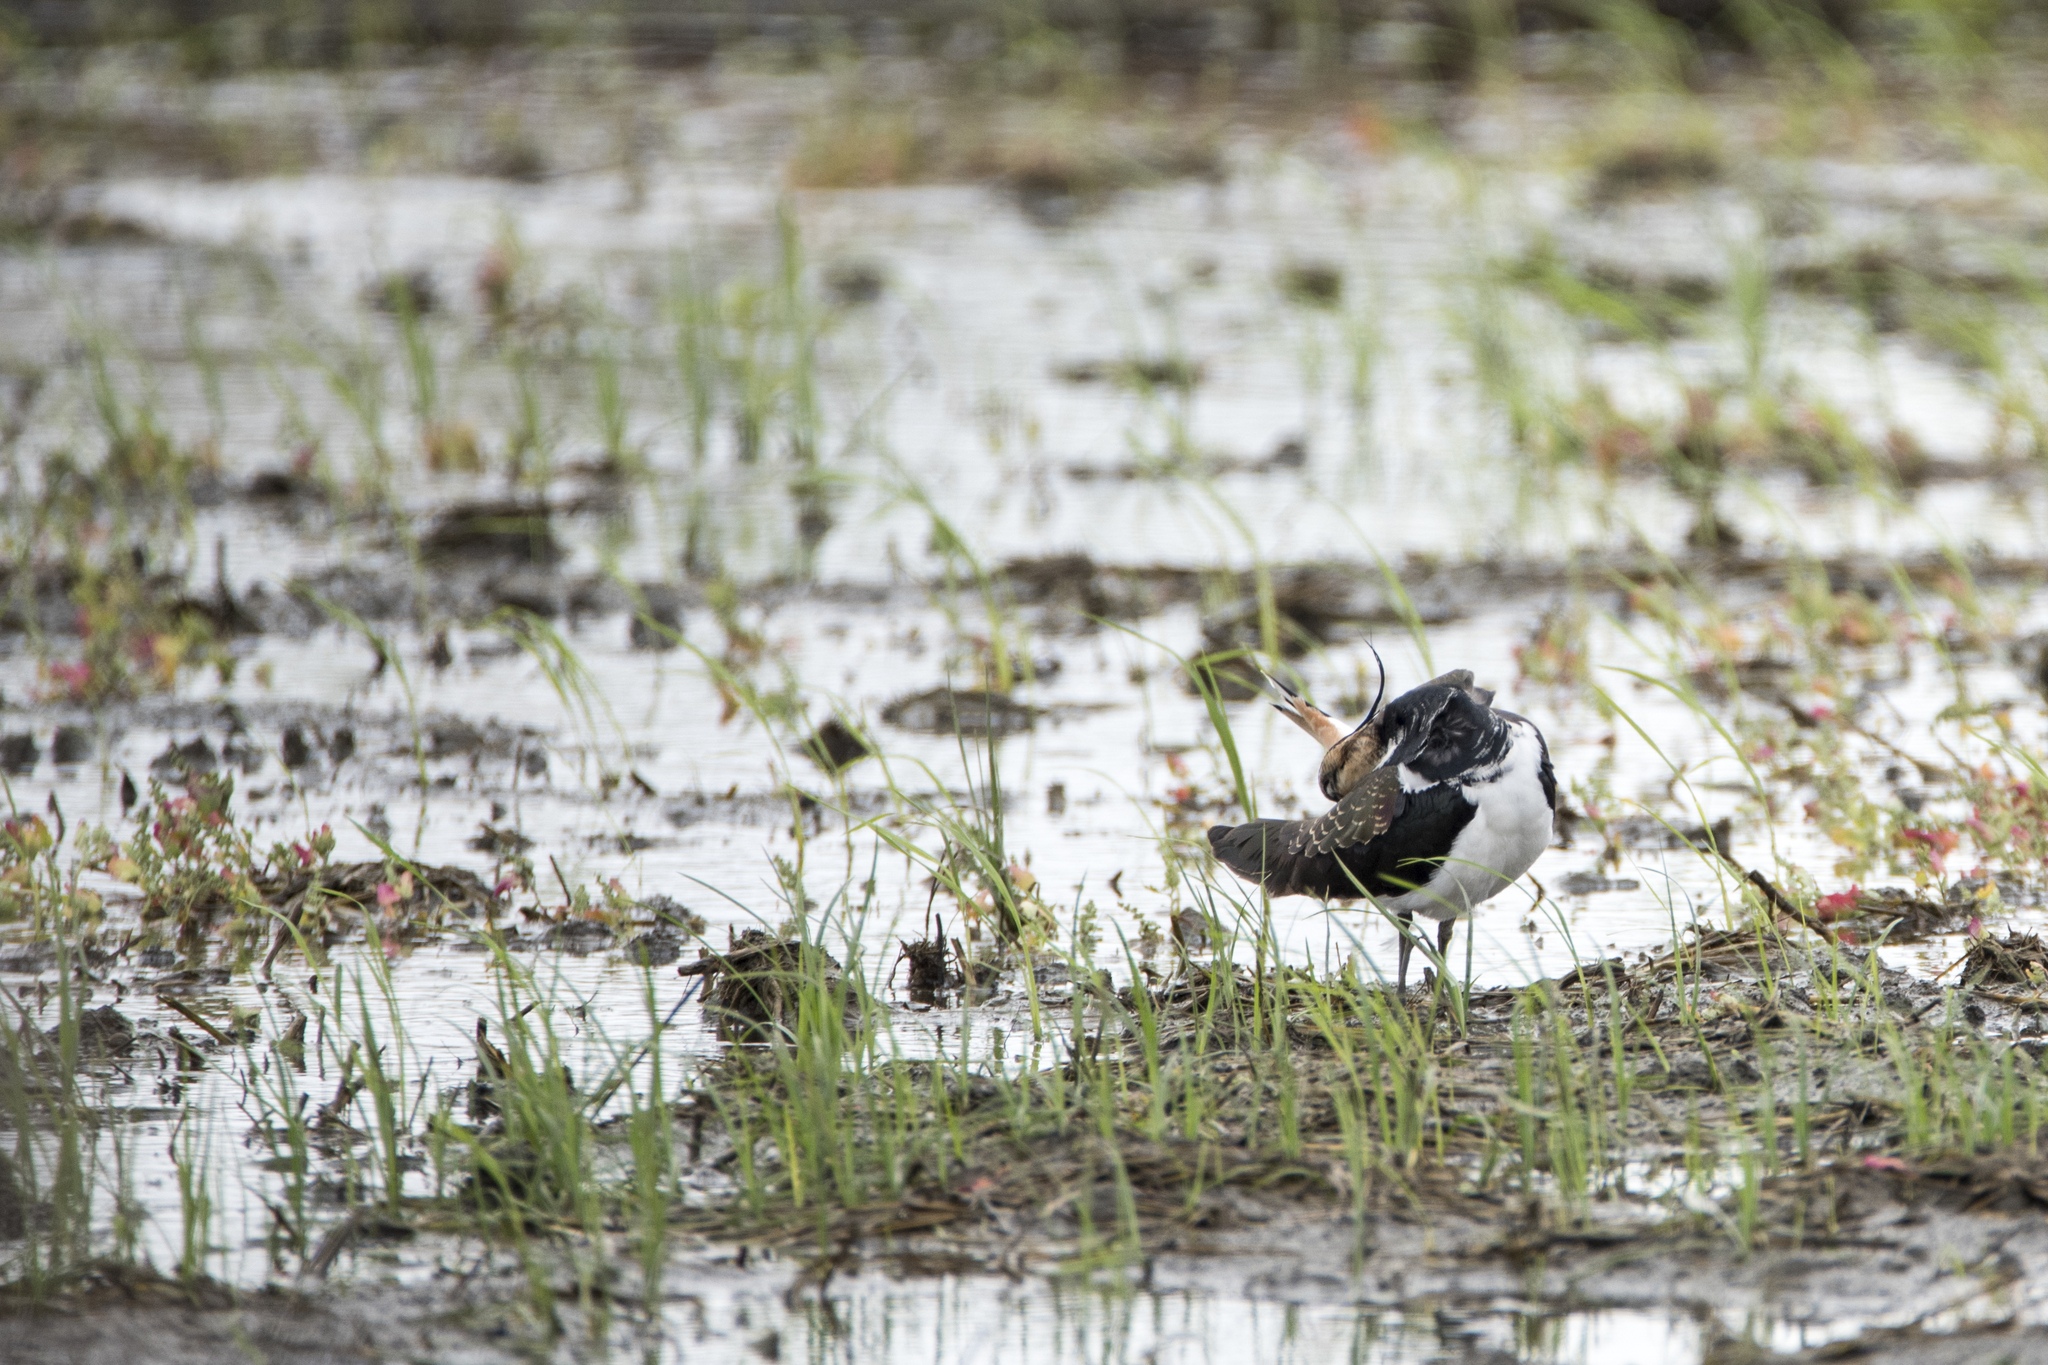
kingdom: Animalia
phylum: Chordata
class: Aves
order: Charadriiformes
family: Charadriidae
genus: Vanellus
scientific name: Vanellus vanellus
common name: Northern lapwing
